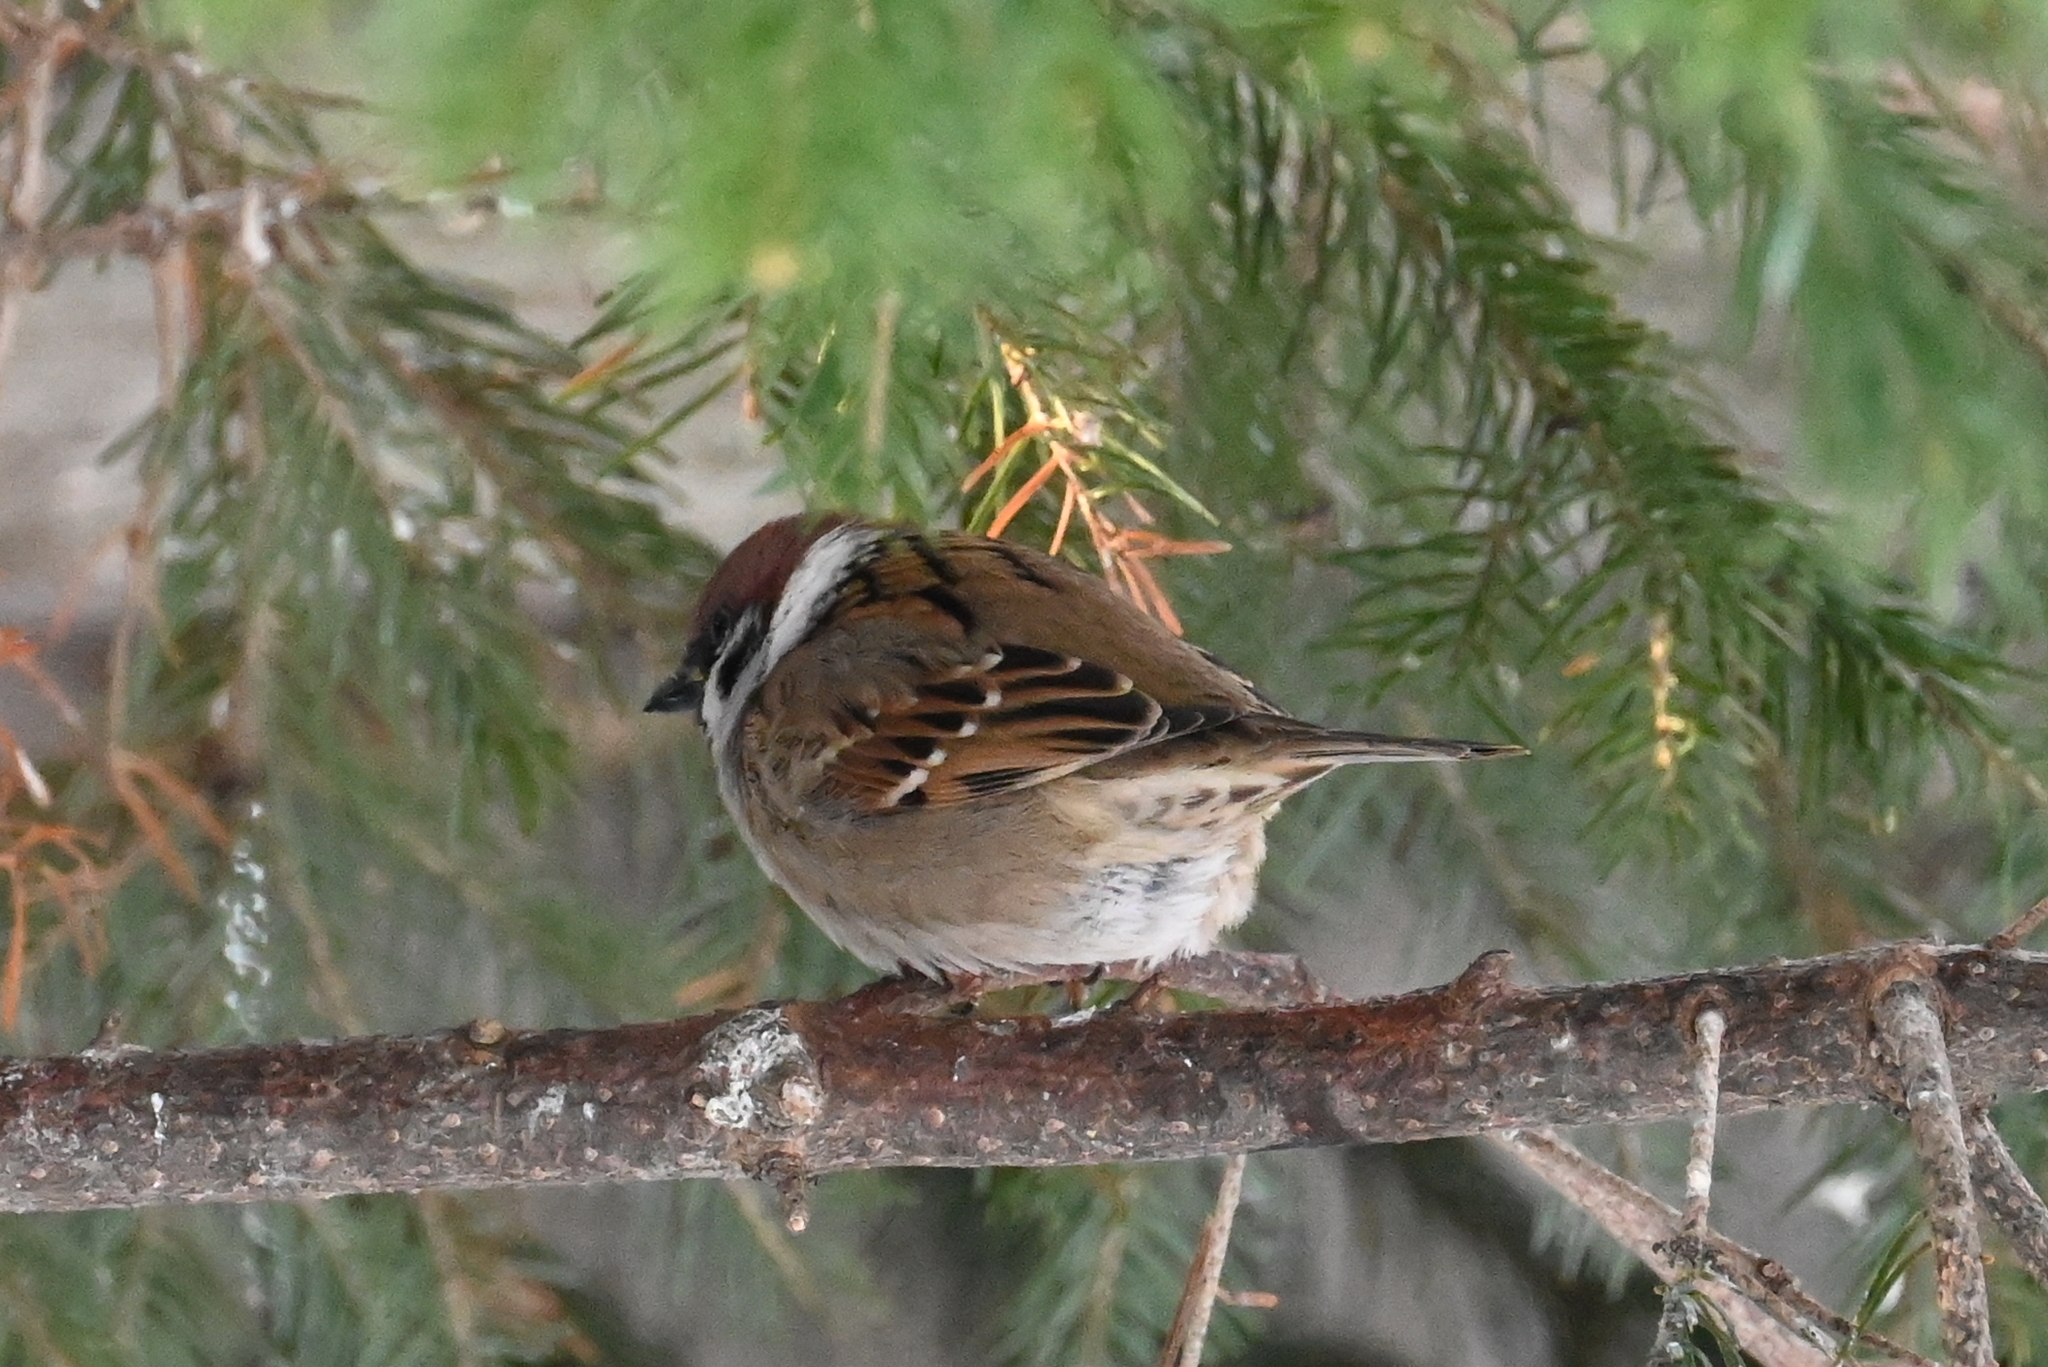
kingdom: Animalia
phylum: Chordata
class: Aves
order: Passeriformes
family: Passeridae
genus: Passer
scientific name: Passer montanus
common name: Eurasian tree sparrow
